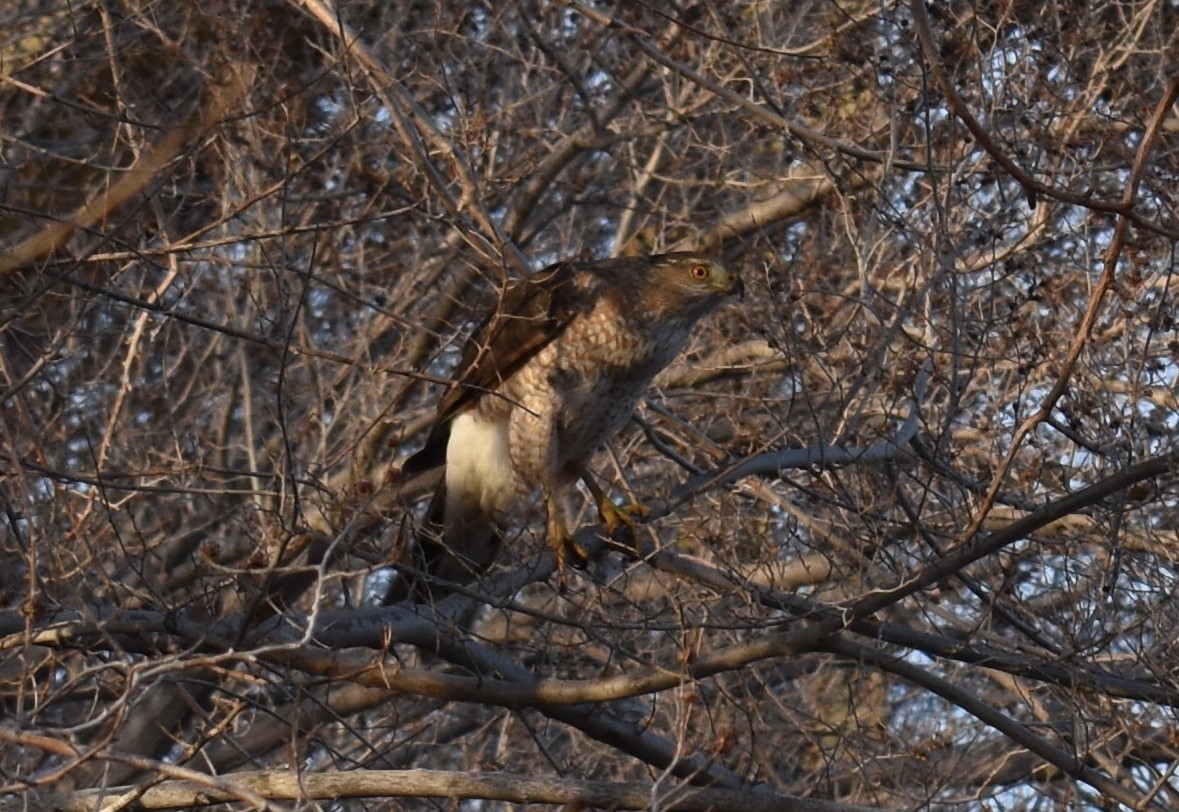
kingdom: Animalia
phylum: Chordata
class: Aves
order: Accipitriformes
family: Accipitridae
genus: Accipiter
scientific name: Accipiter cooperii
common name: Cooper's hawk
